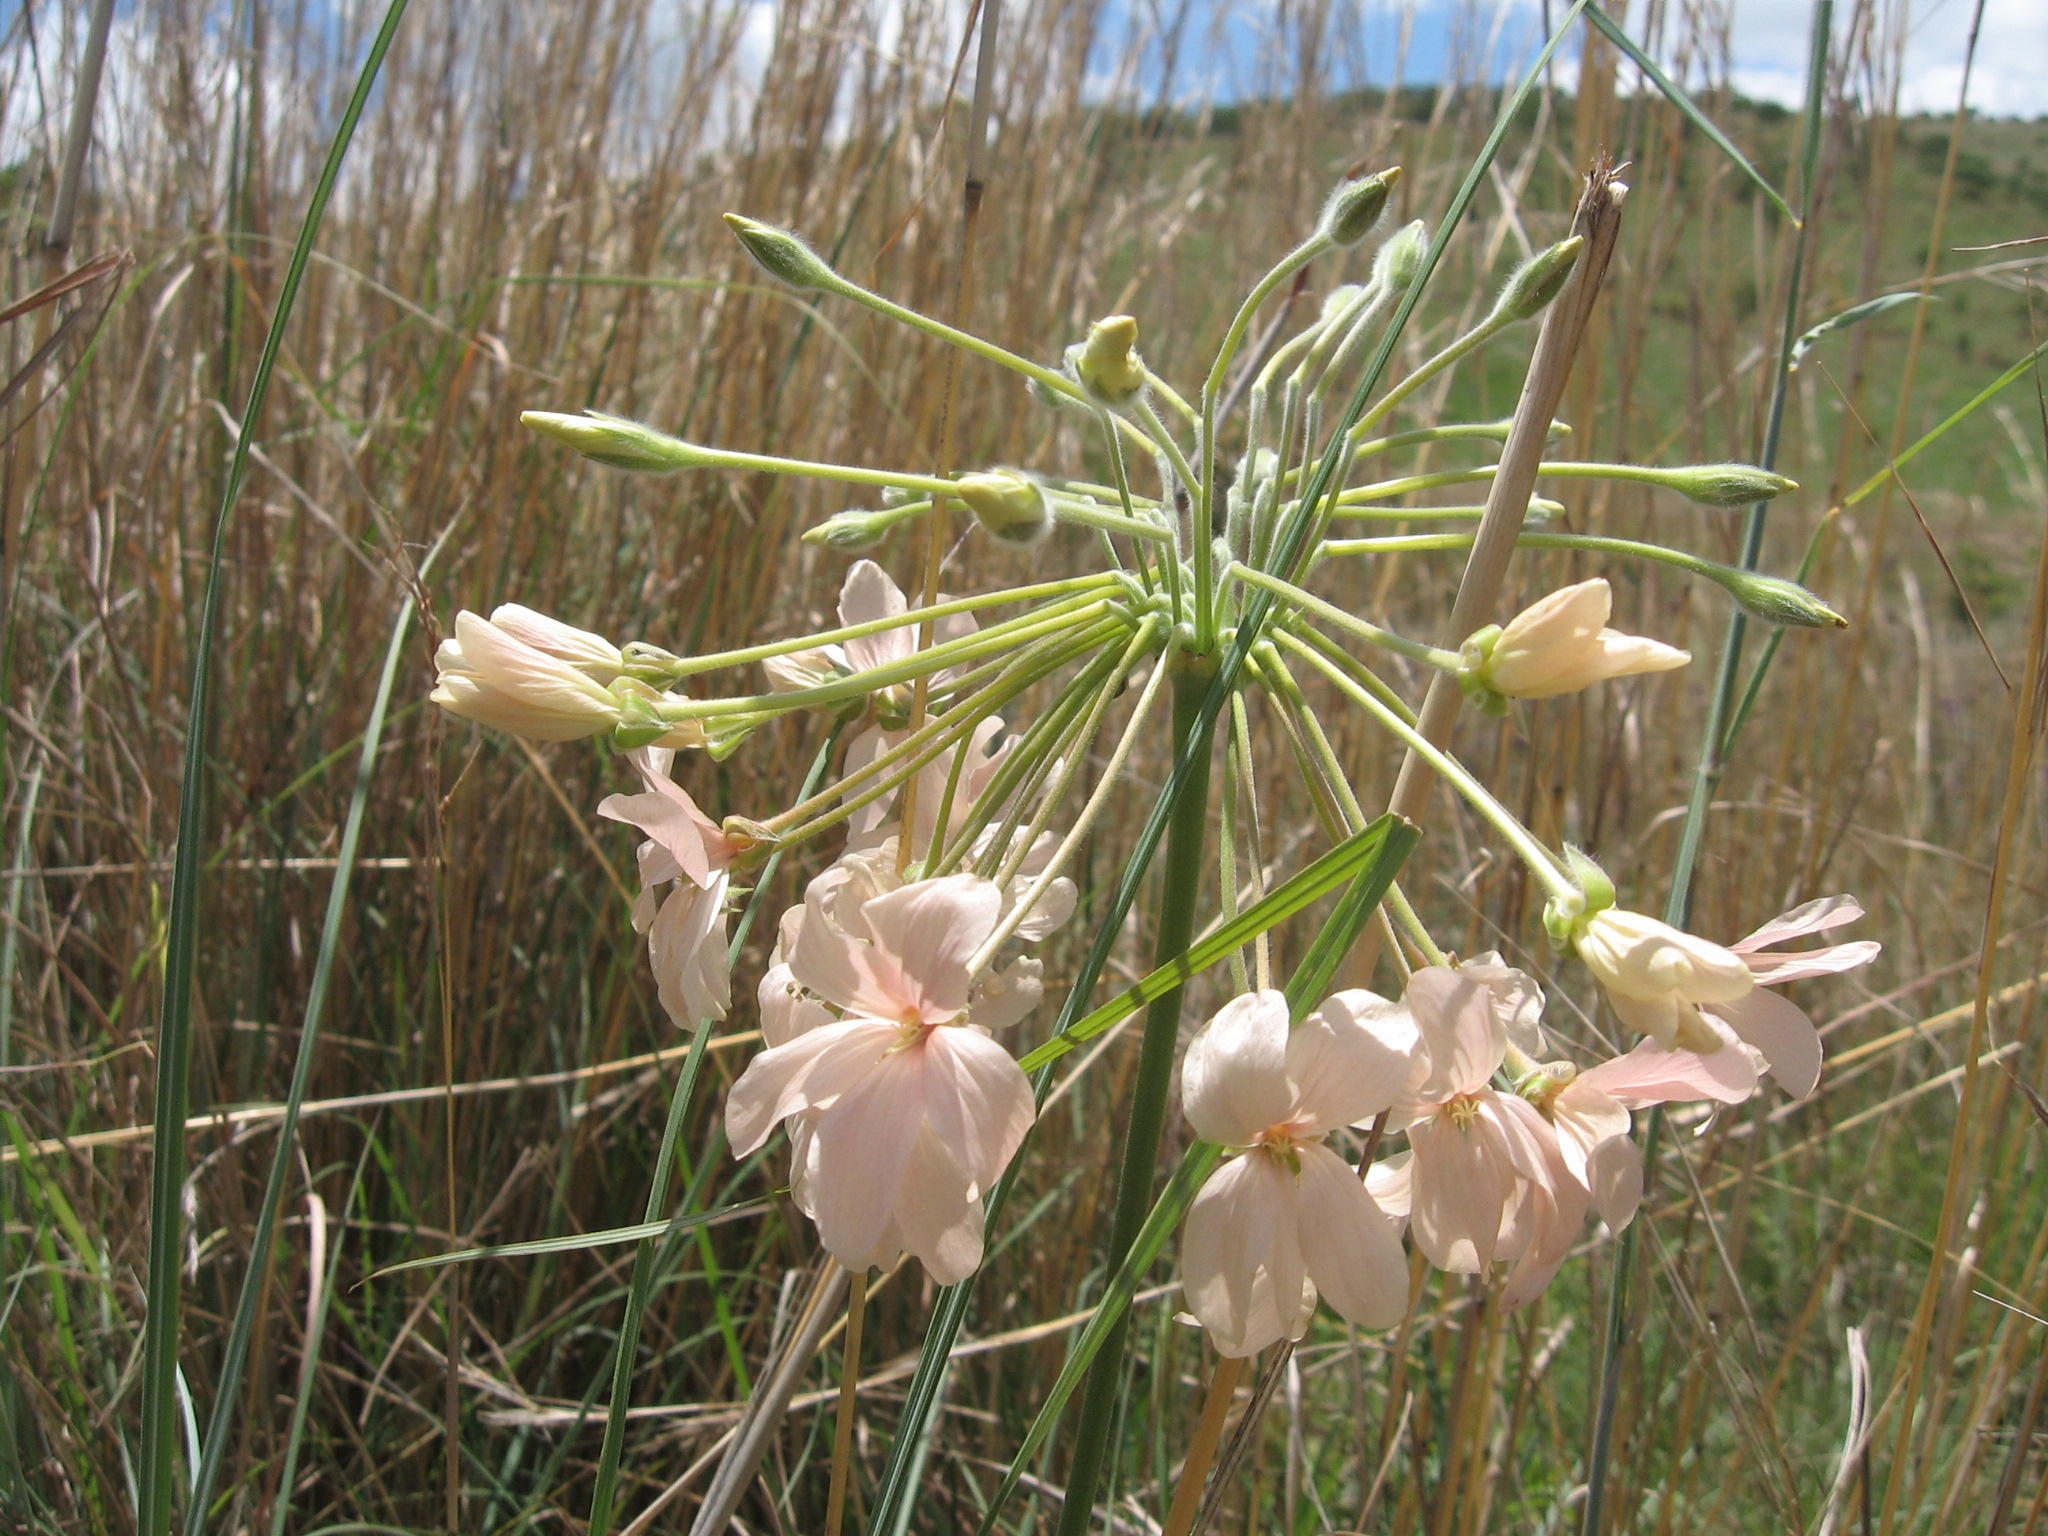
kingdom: Plantae
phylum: Tracheophyta
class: Magnoliopsida
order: Geraniales
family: Geraniaceae
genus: Pelargonium
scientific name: Pelargonium luridum
